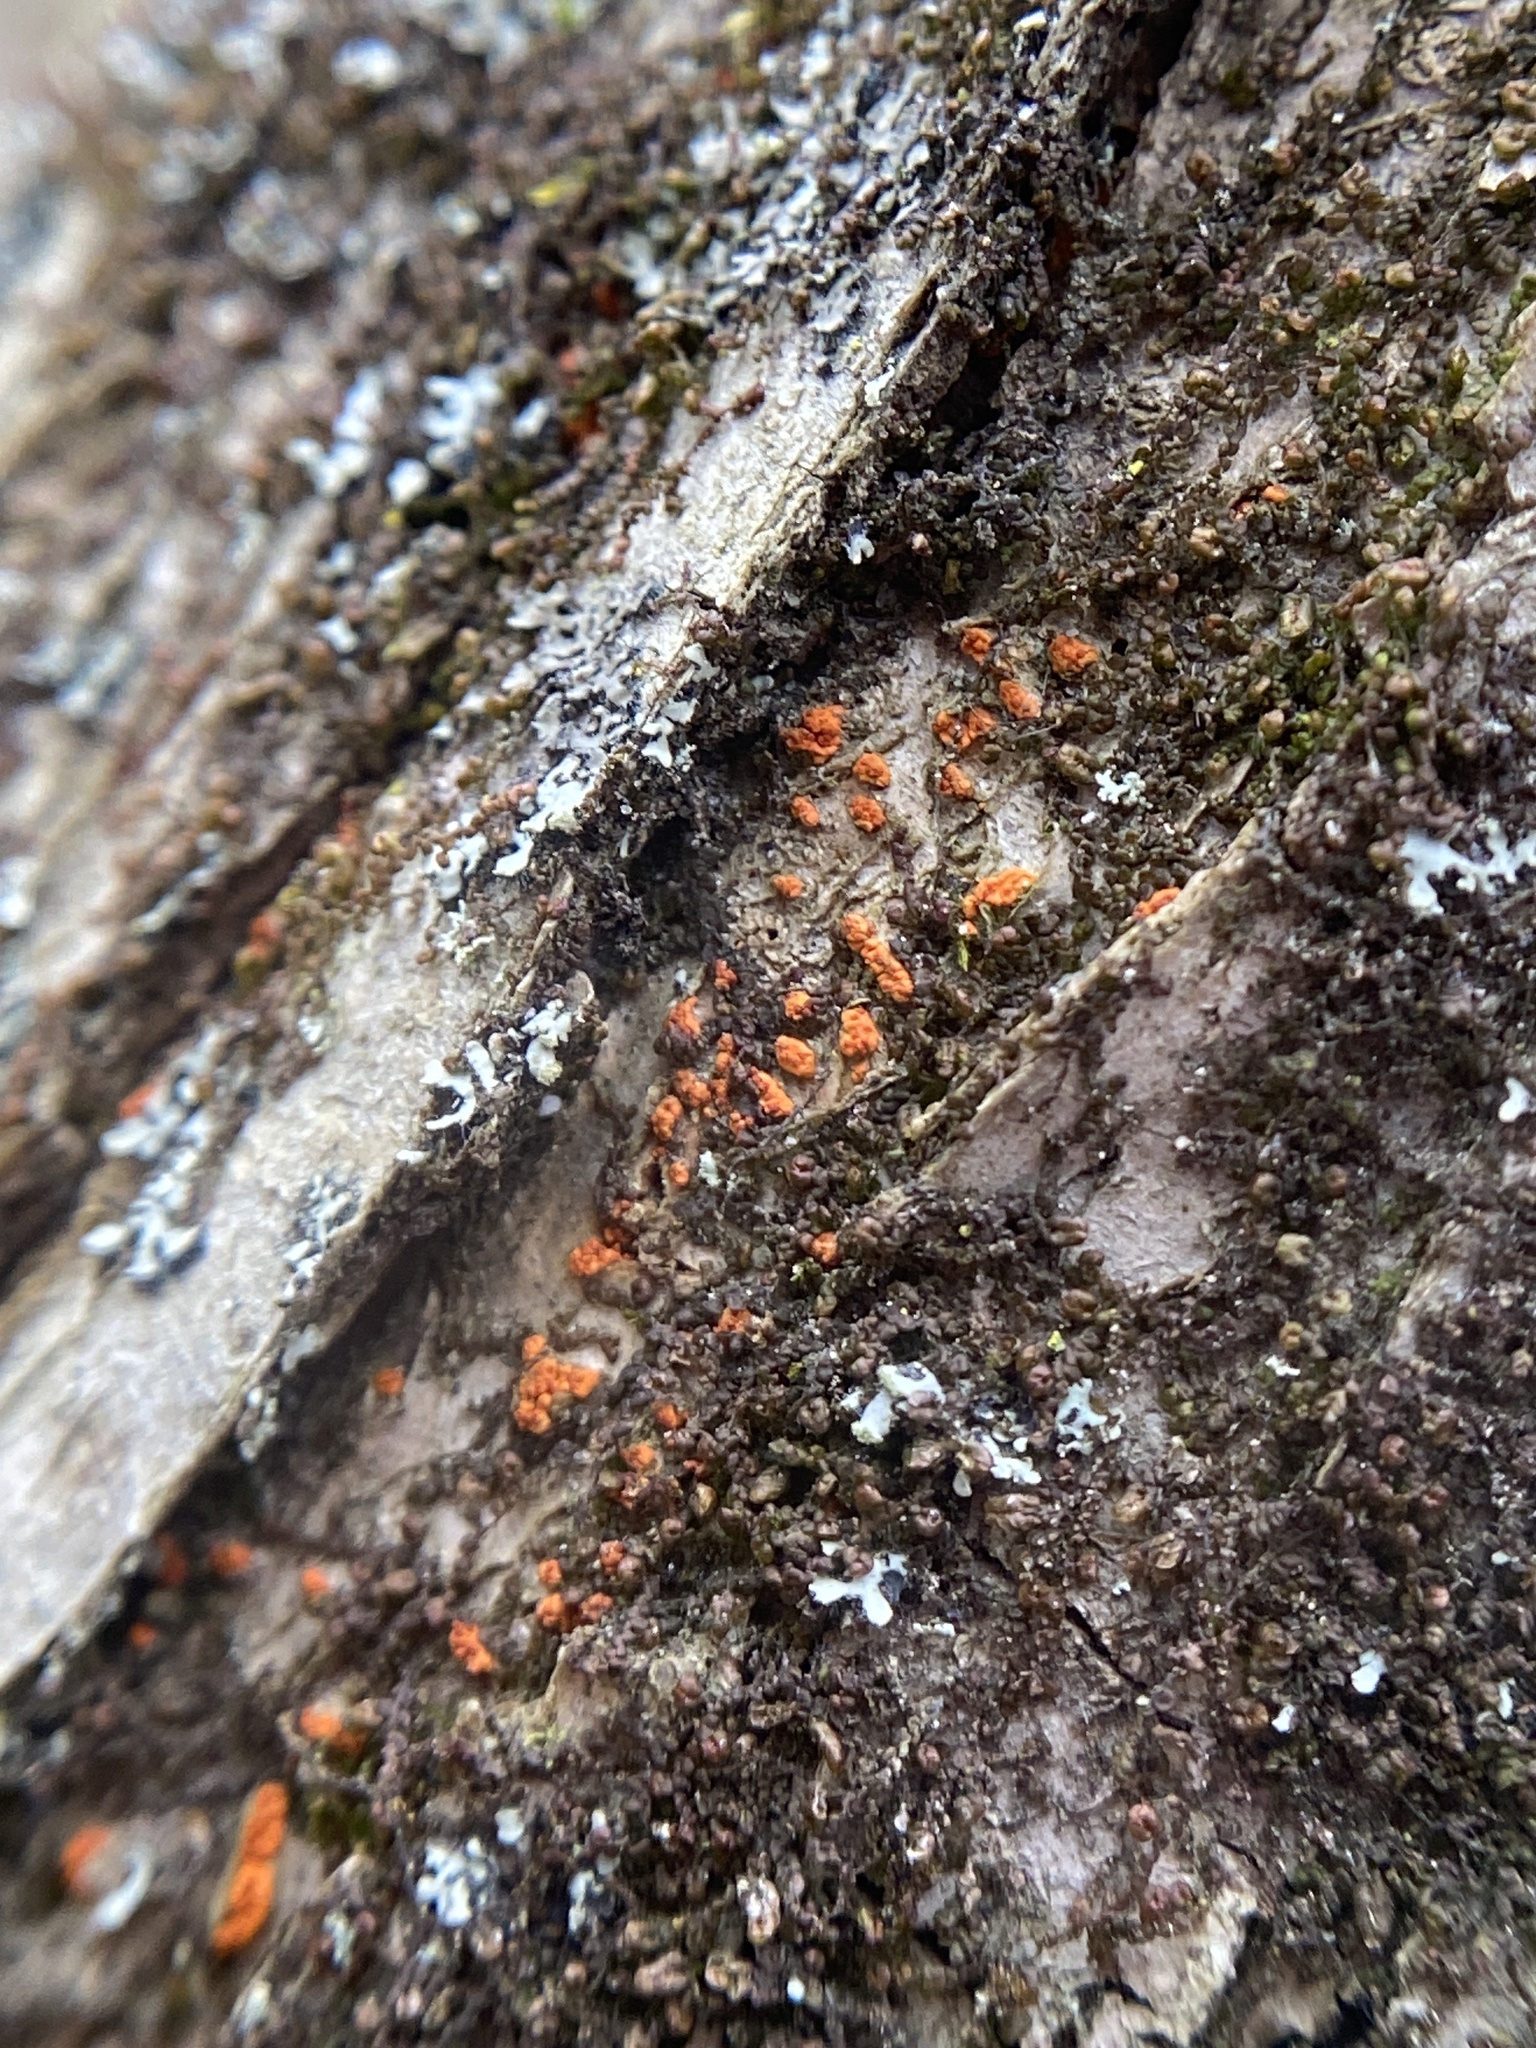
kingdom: Fungi
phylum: Ascomycota
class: Sordariomycetes
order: Diaporthales
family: Cryphonectriaceae
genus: Cryphonectria
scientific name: Cryphonectria parasitica
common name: Chestnut blight
